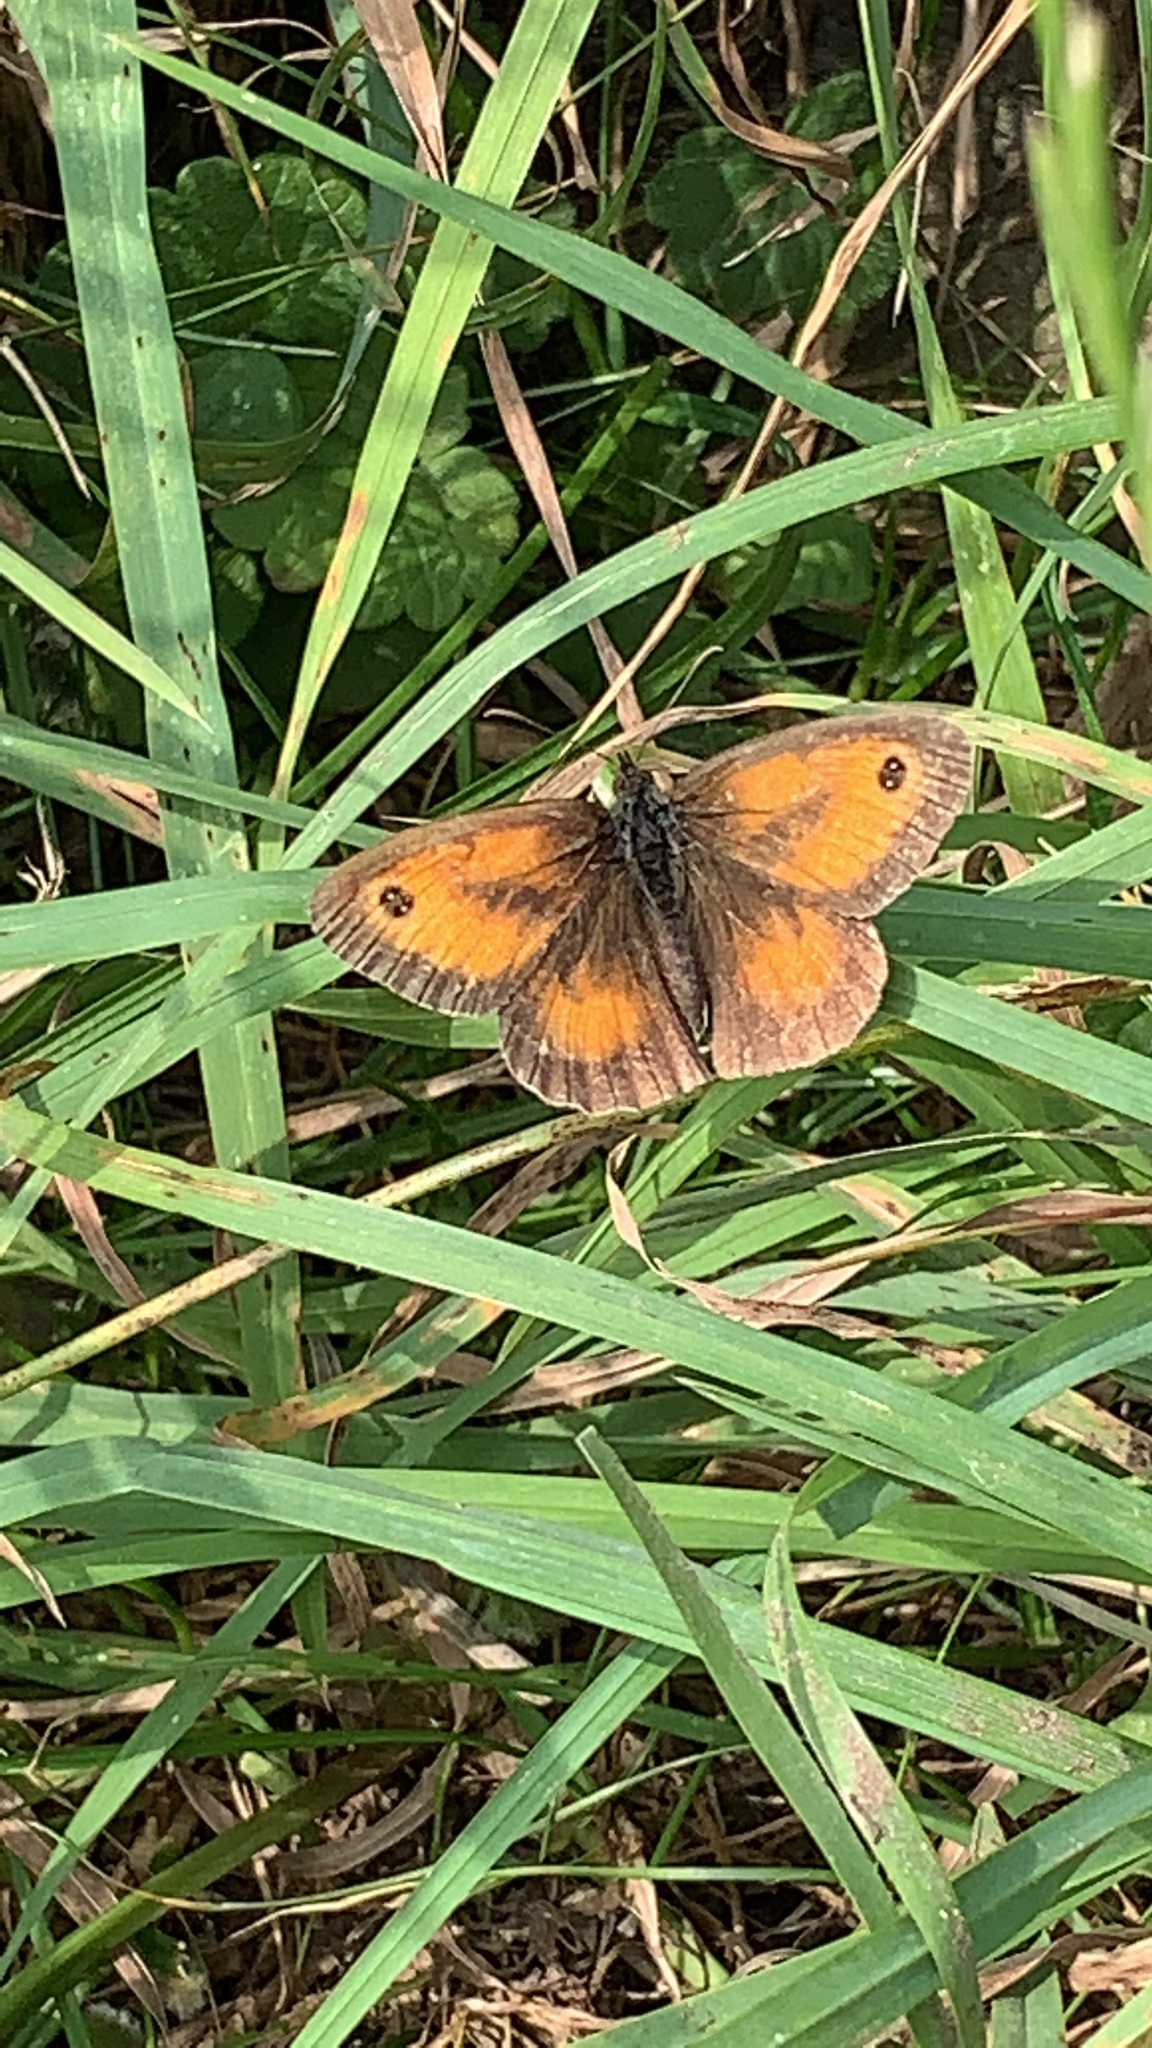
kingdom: Animalia
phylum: Arthropoda
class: Insecta
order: Lepidoptera
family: Nymphalidae
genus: Pyronia
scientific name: Pyronia tithonus
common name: Gatekeeper
